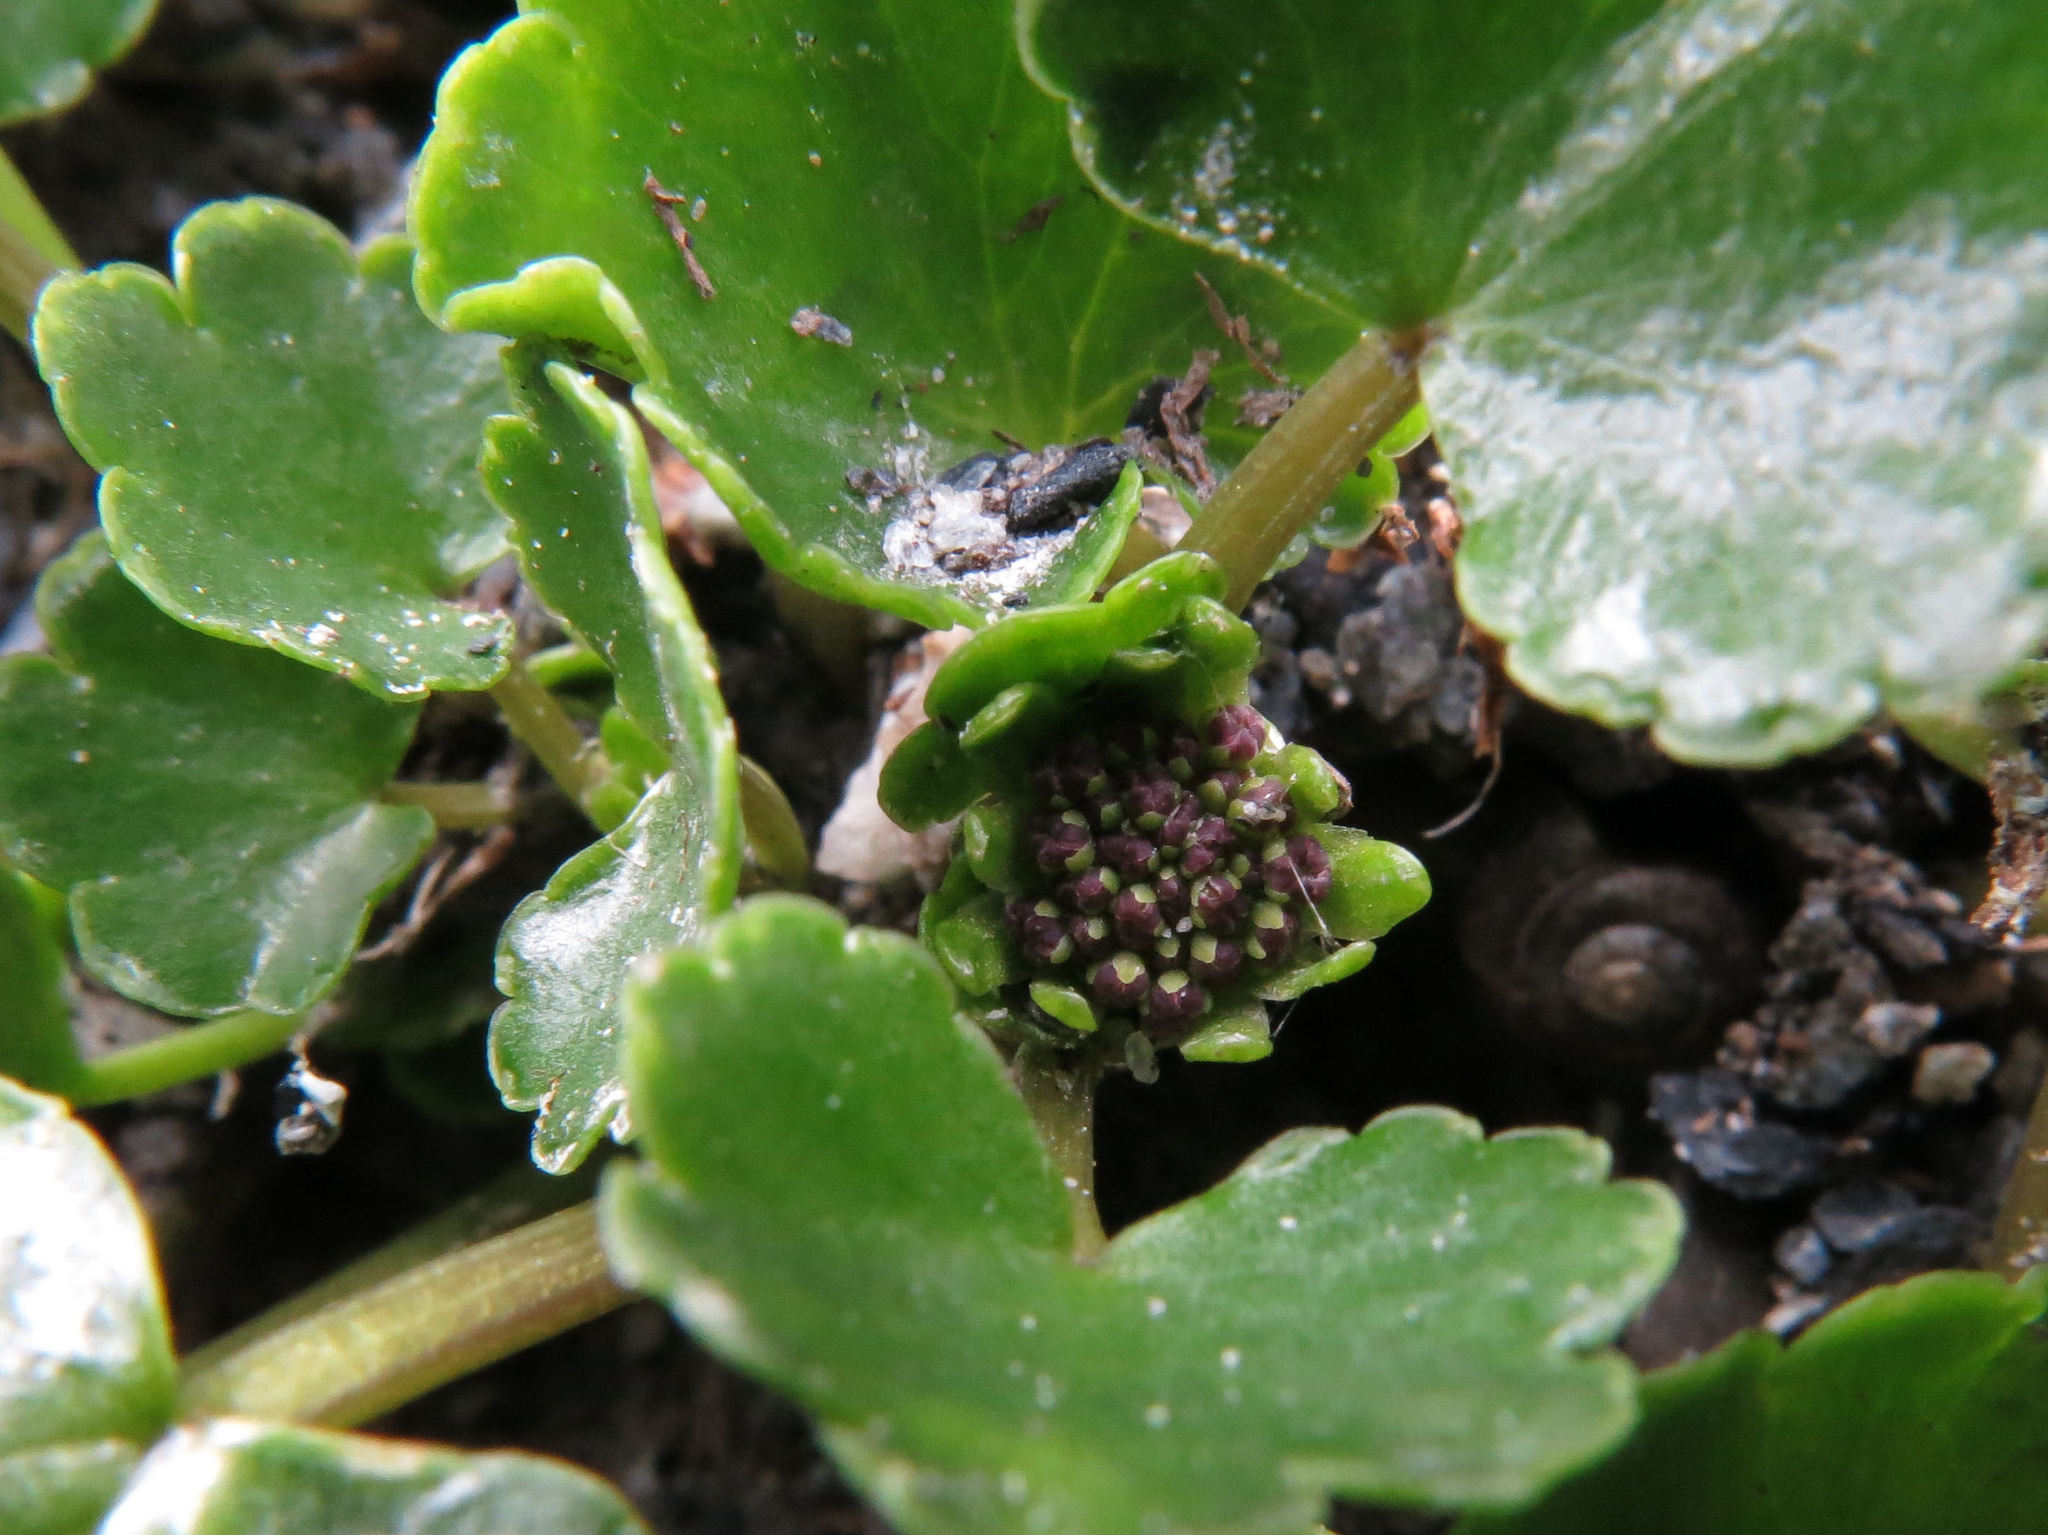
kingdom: Plantae
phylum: Tracheophyta
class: Magnoliopsida
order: Apiales
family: Apiaceae
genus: Azorella
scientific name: Azorella haastii
